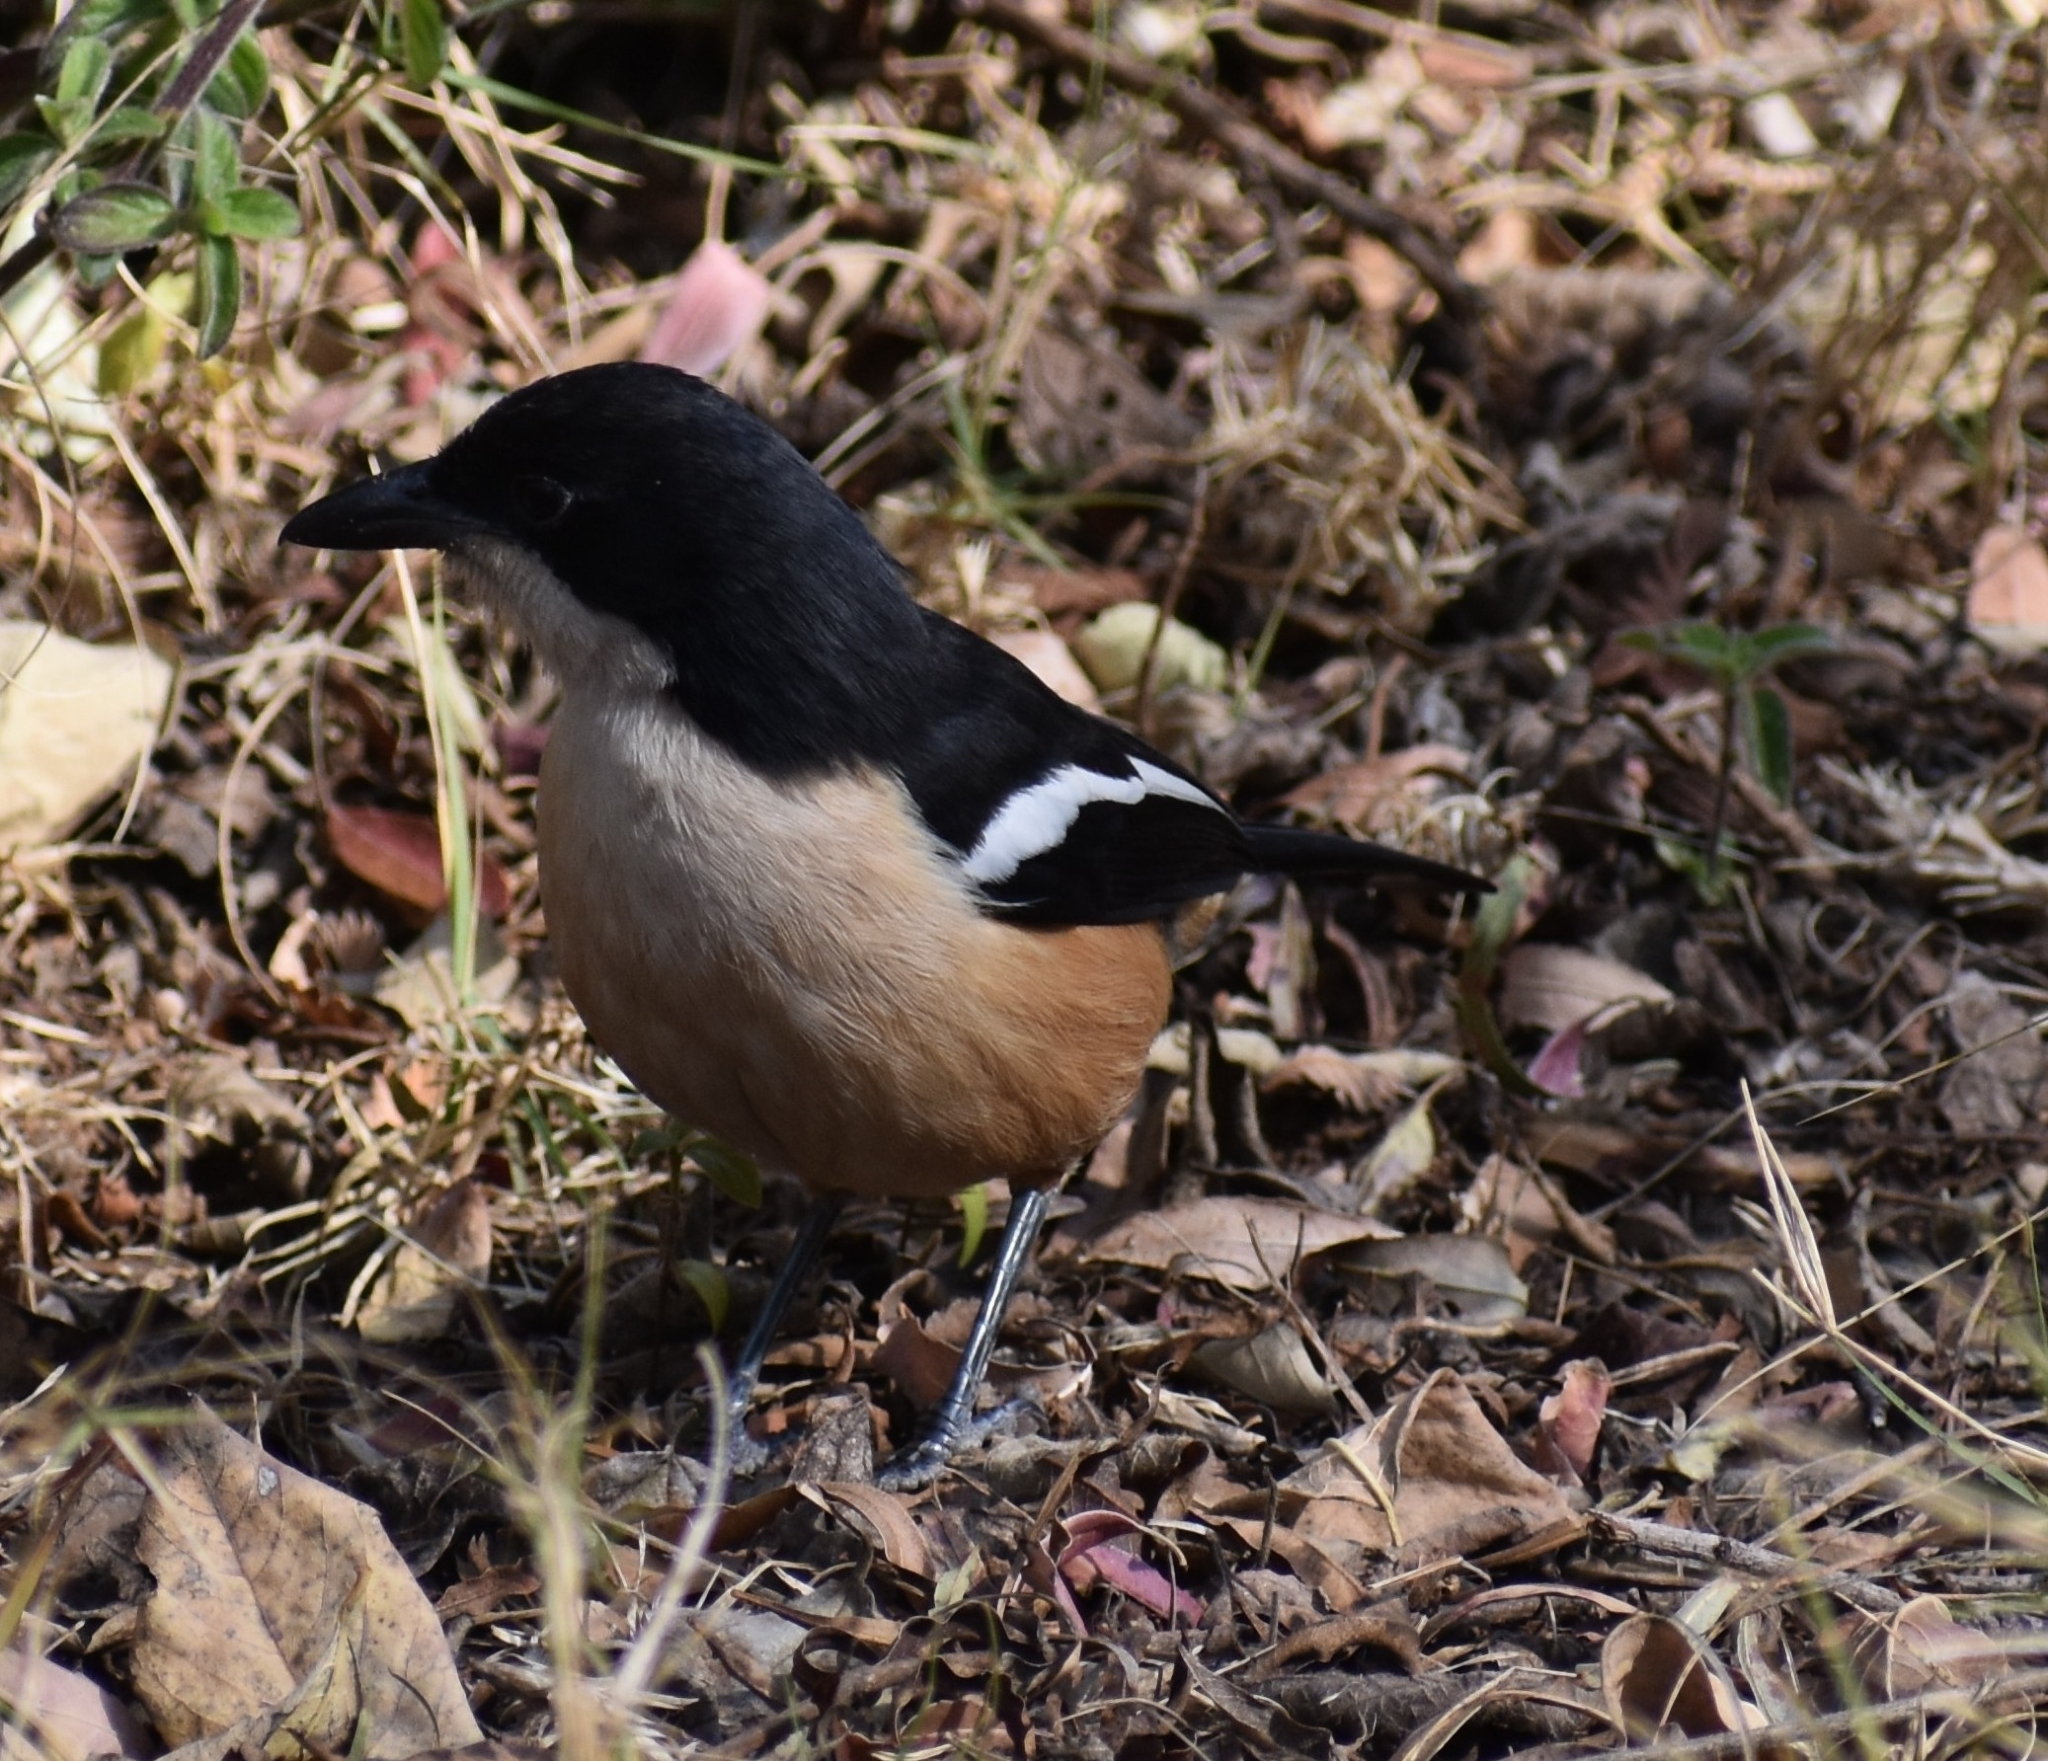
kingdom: Animalia
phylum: Chordata
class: Aves
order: Passeriformes
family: Malaconotidae
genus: Laniarius
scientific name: Laniarius ferrugineus
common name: Southern boubou
